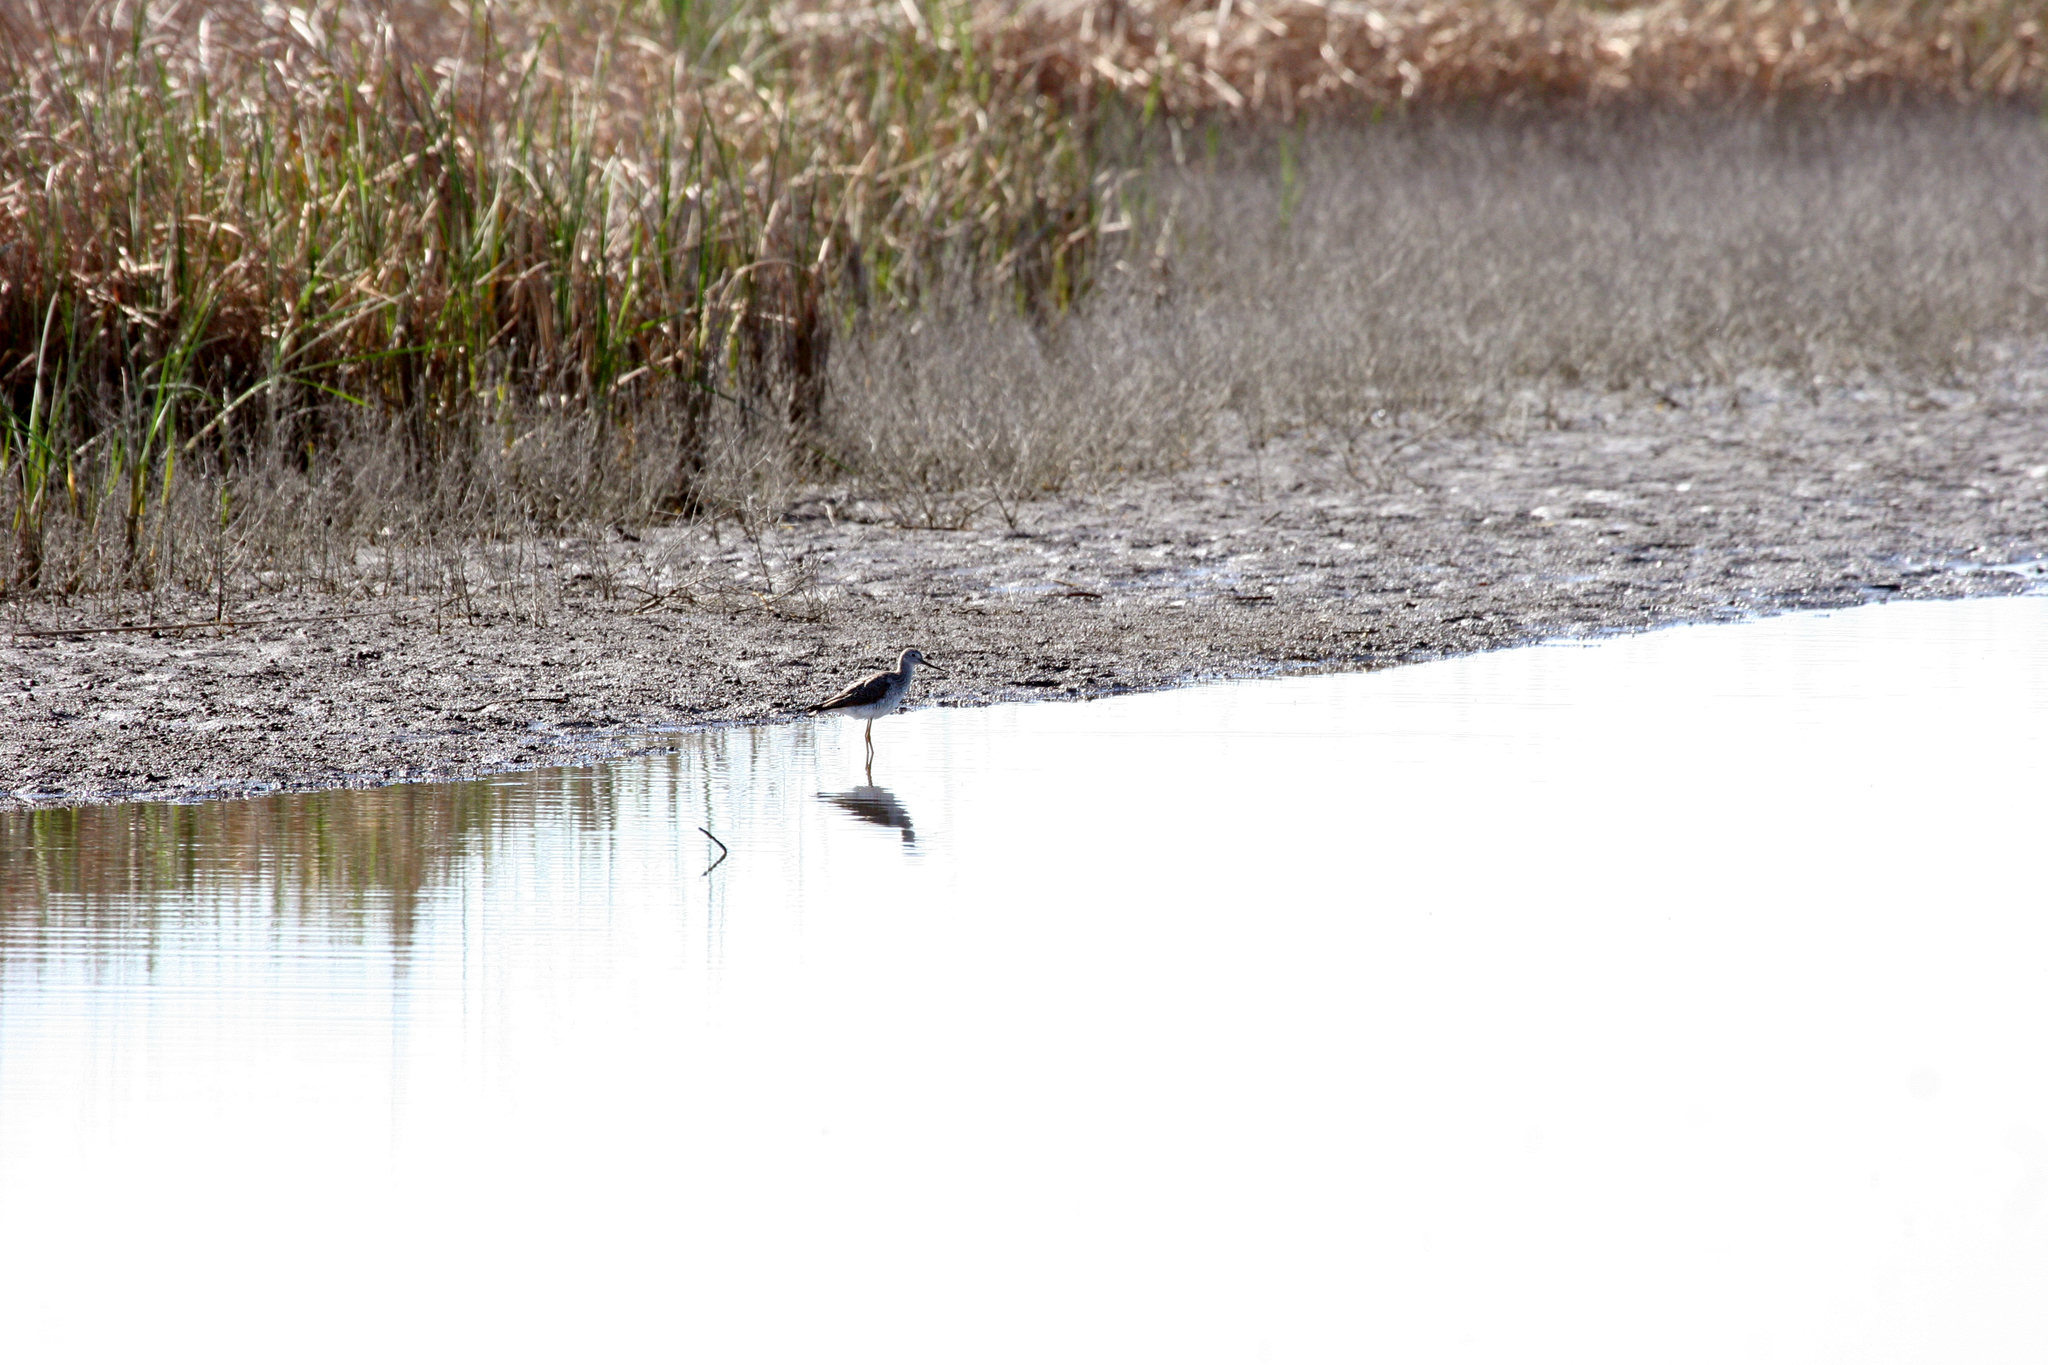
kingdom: Animalia
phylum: Chordata
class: Aves
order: Charadriiformes
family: Scolopacidae
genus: Tringa
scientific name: Tringa melanoleuca
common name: Greater yellowlegs
